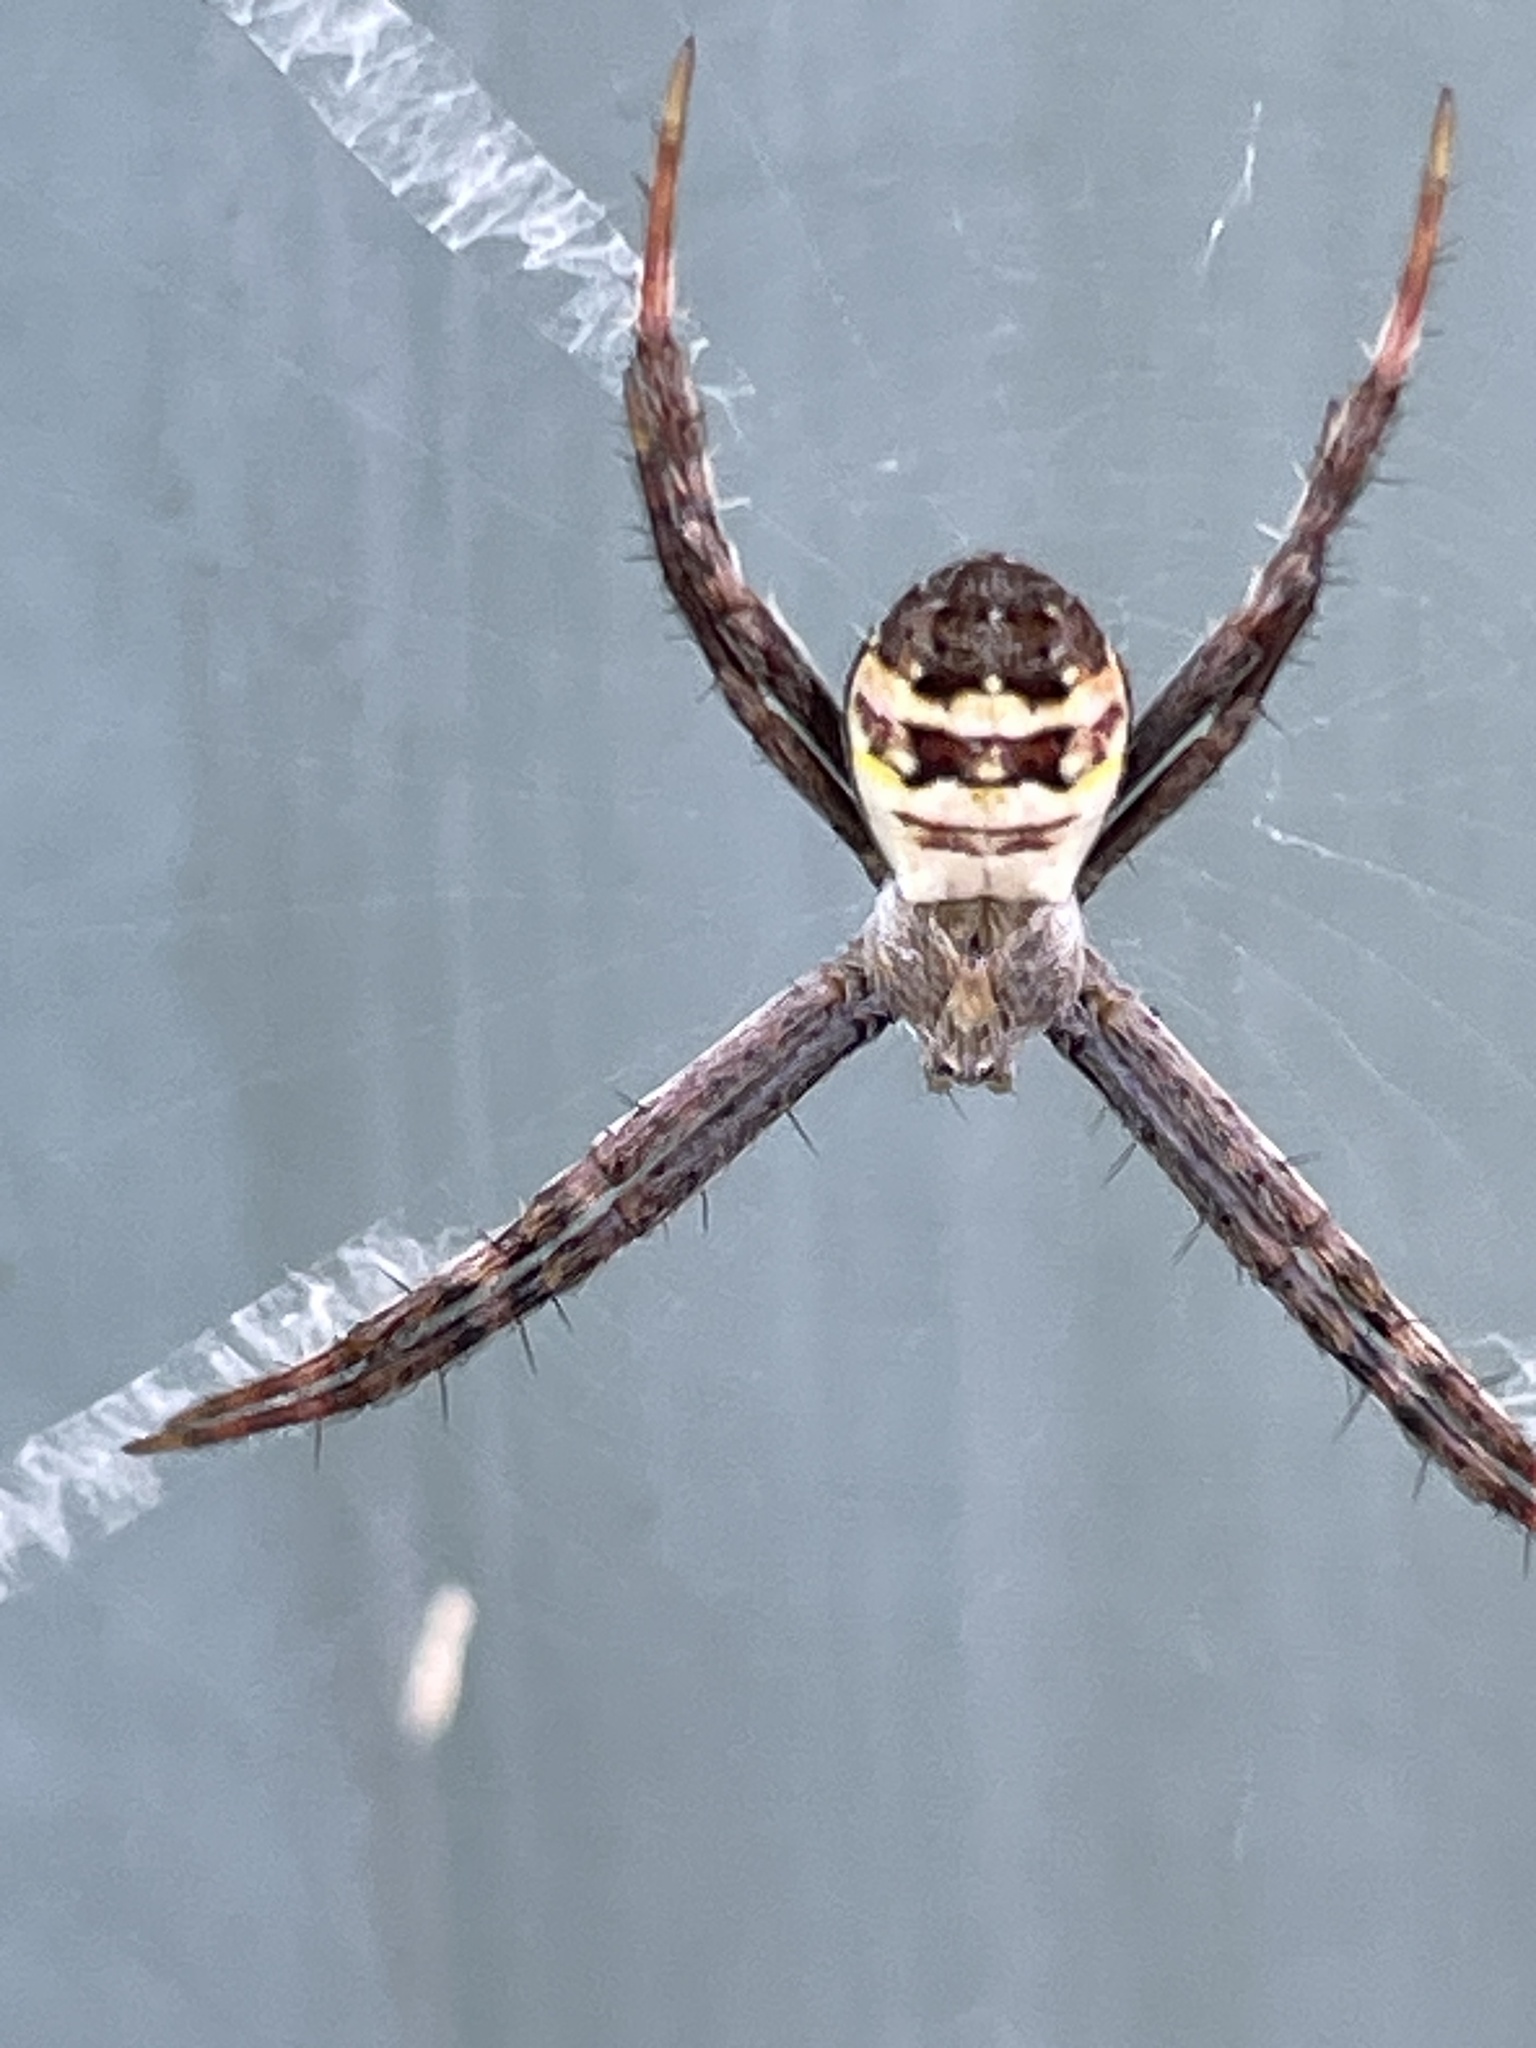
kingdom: Animalia
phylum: Arthropoda
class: Arachnida
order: Araneae
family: Araneidae
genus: Argiope
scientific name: Argiope keyserlingi
